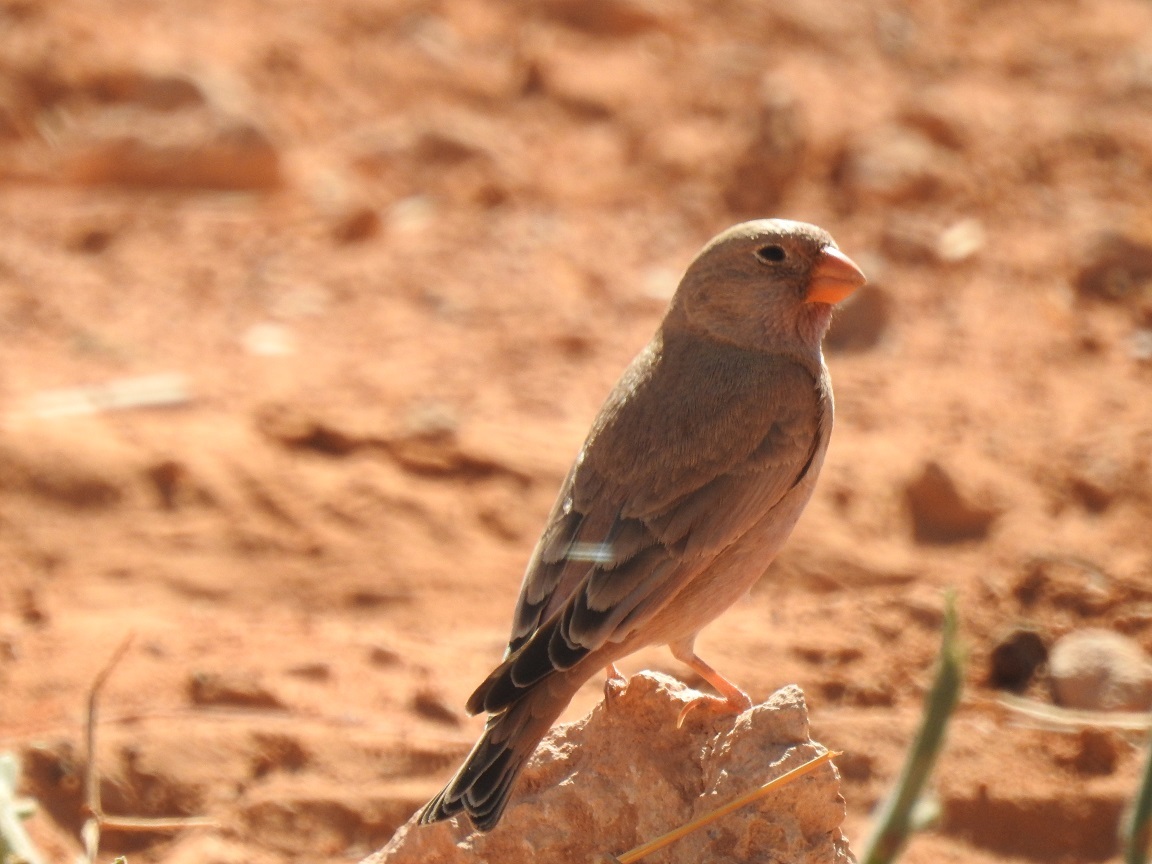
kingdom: Animalia
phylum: Chordata
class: Aves
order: Passeriformes
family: Fringillidae
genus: Bucanetes
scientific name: Bucanetes githagineus
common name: Trumpeter finch
